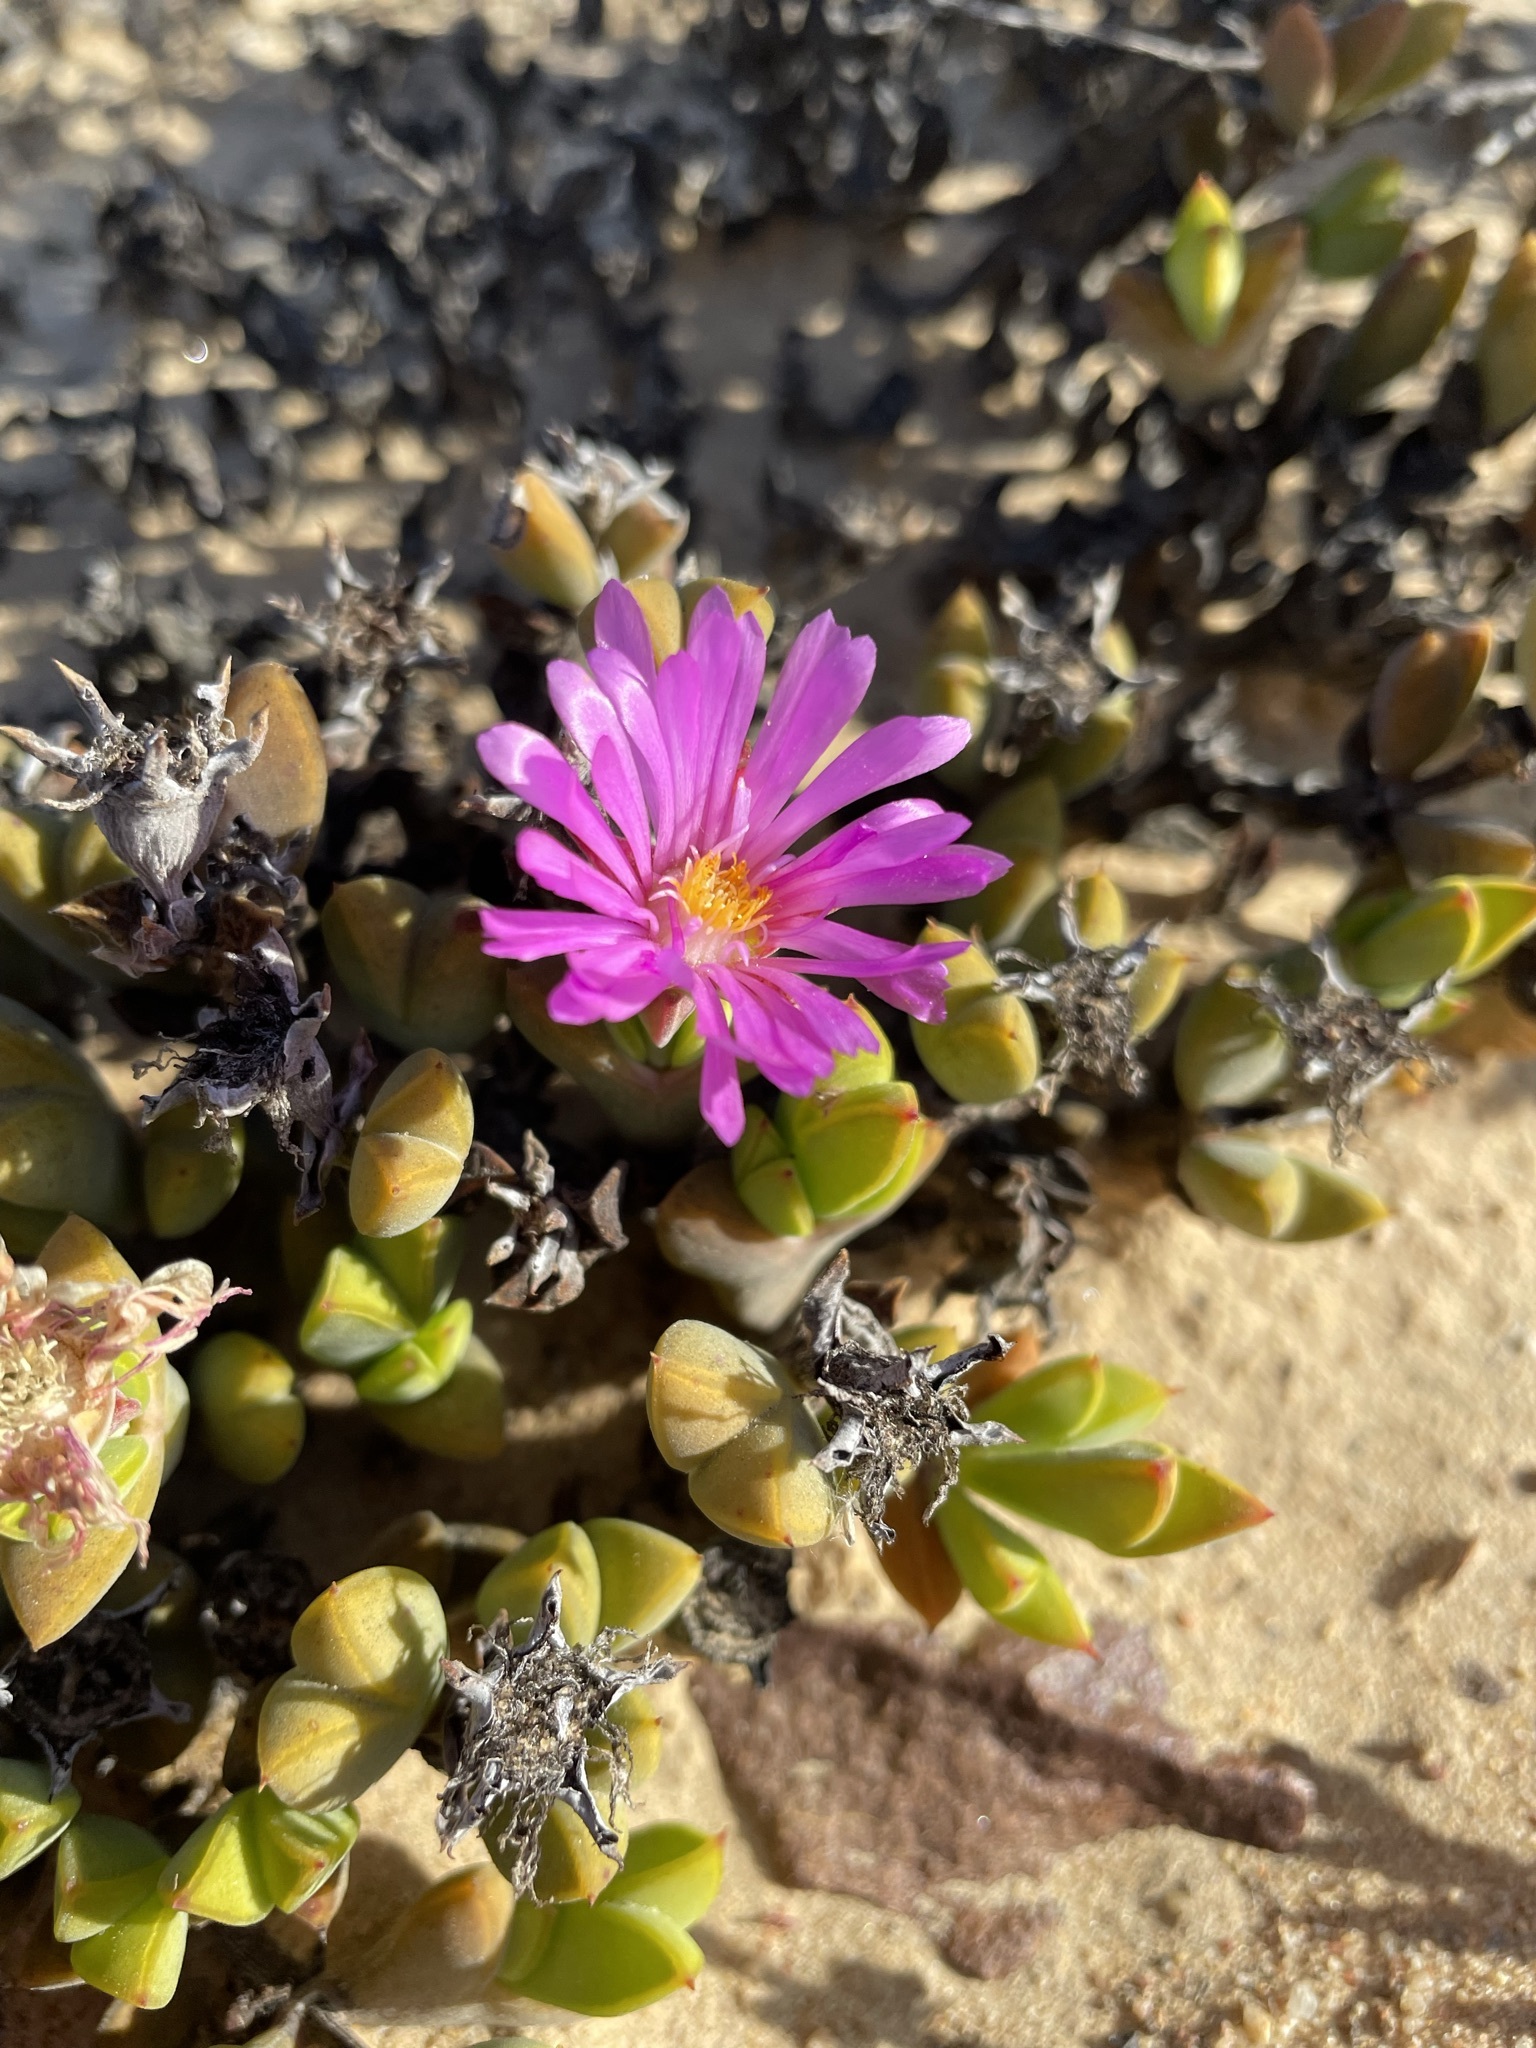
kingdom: Plantae
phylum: Tracheophyta
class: Magnoliopsida
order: Caryophyllales
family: Aizoaceae
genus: Braunsia
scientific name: Braunsia apiculata
